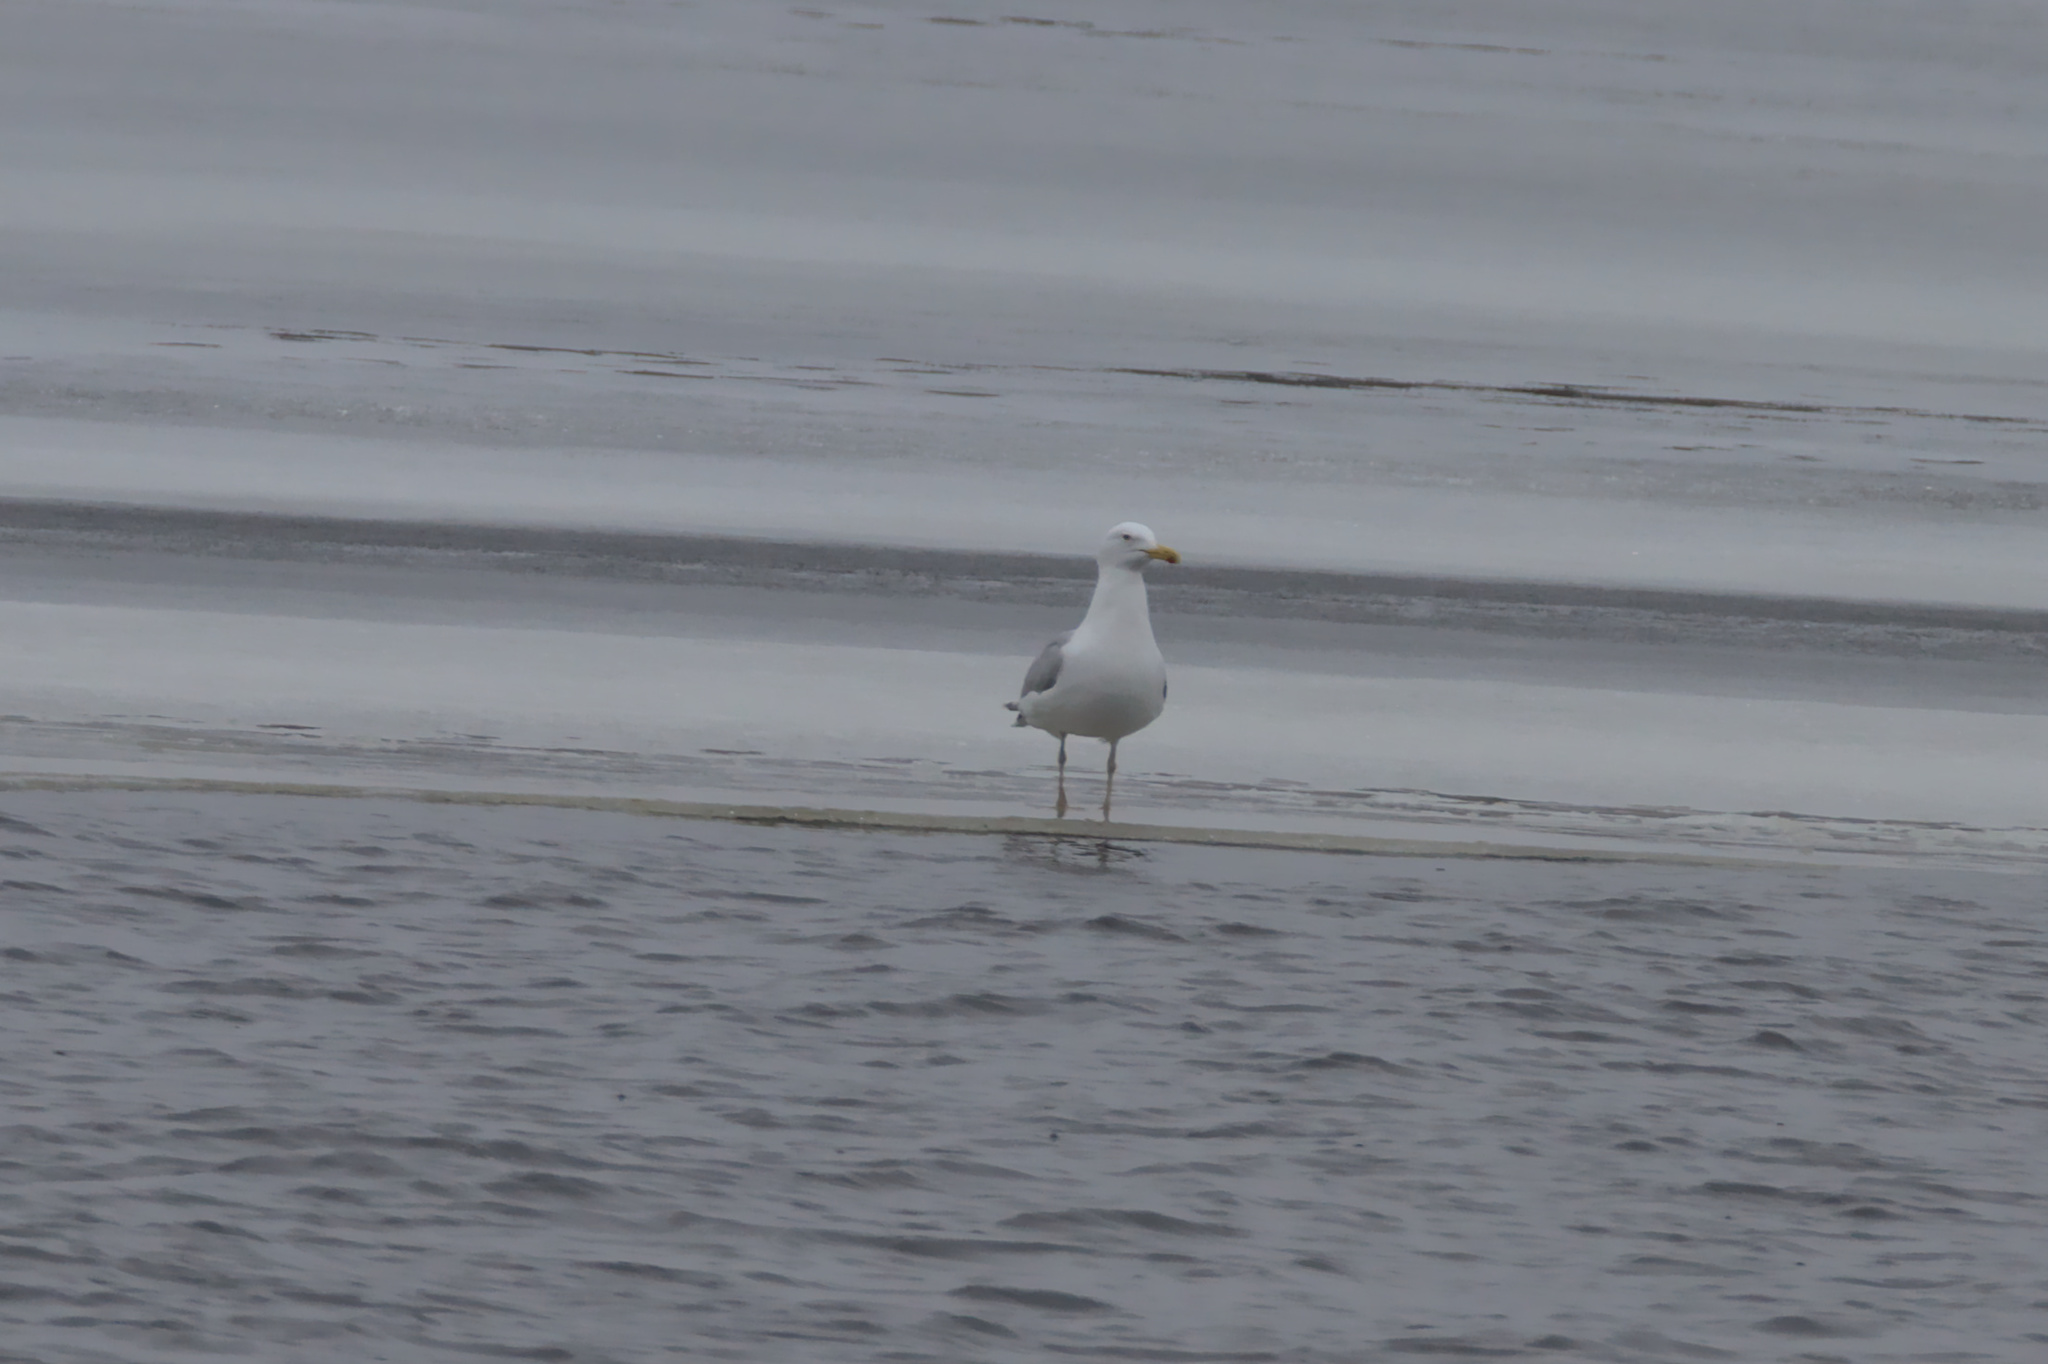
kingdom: Animalia
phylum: Chordata
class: Aves
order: Charadriiformes
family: Laridae
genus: Larus
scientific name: Larus argentatus
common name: Herring gull
